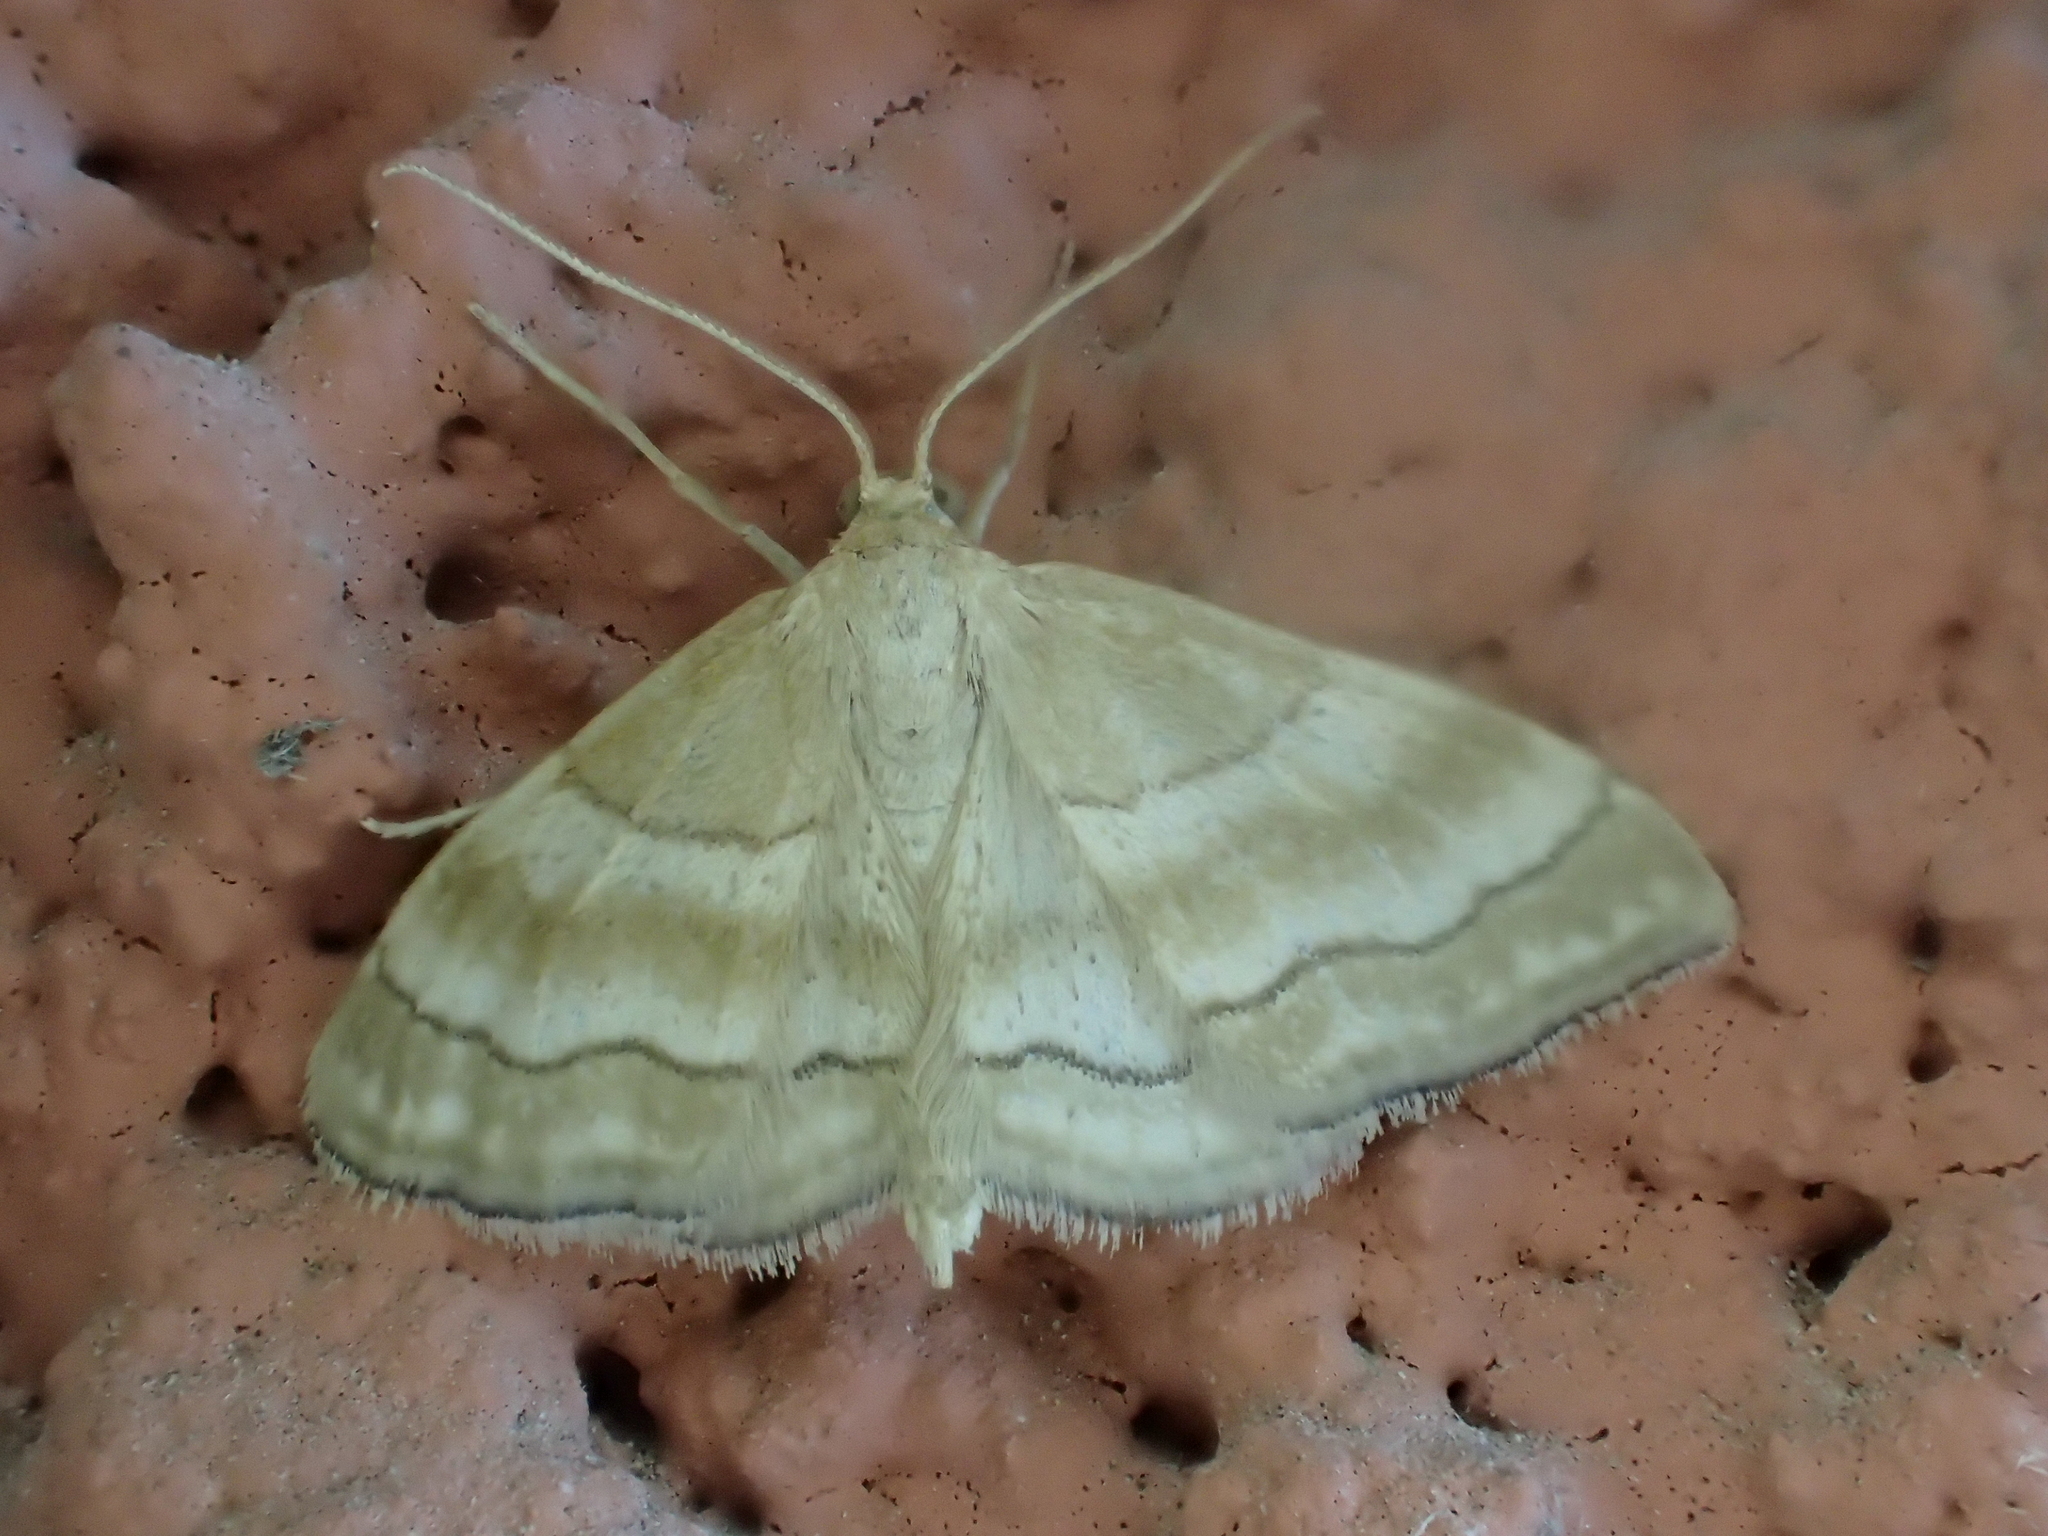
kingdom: Animalia
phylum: Arthropoda
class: Insecta
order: Lepidoptera
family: Geometridae
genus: Idaea
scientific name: Idaea circuitaria
